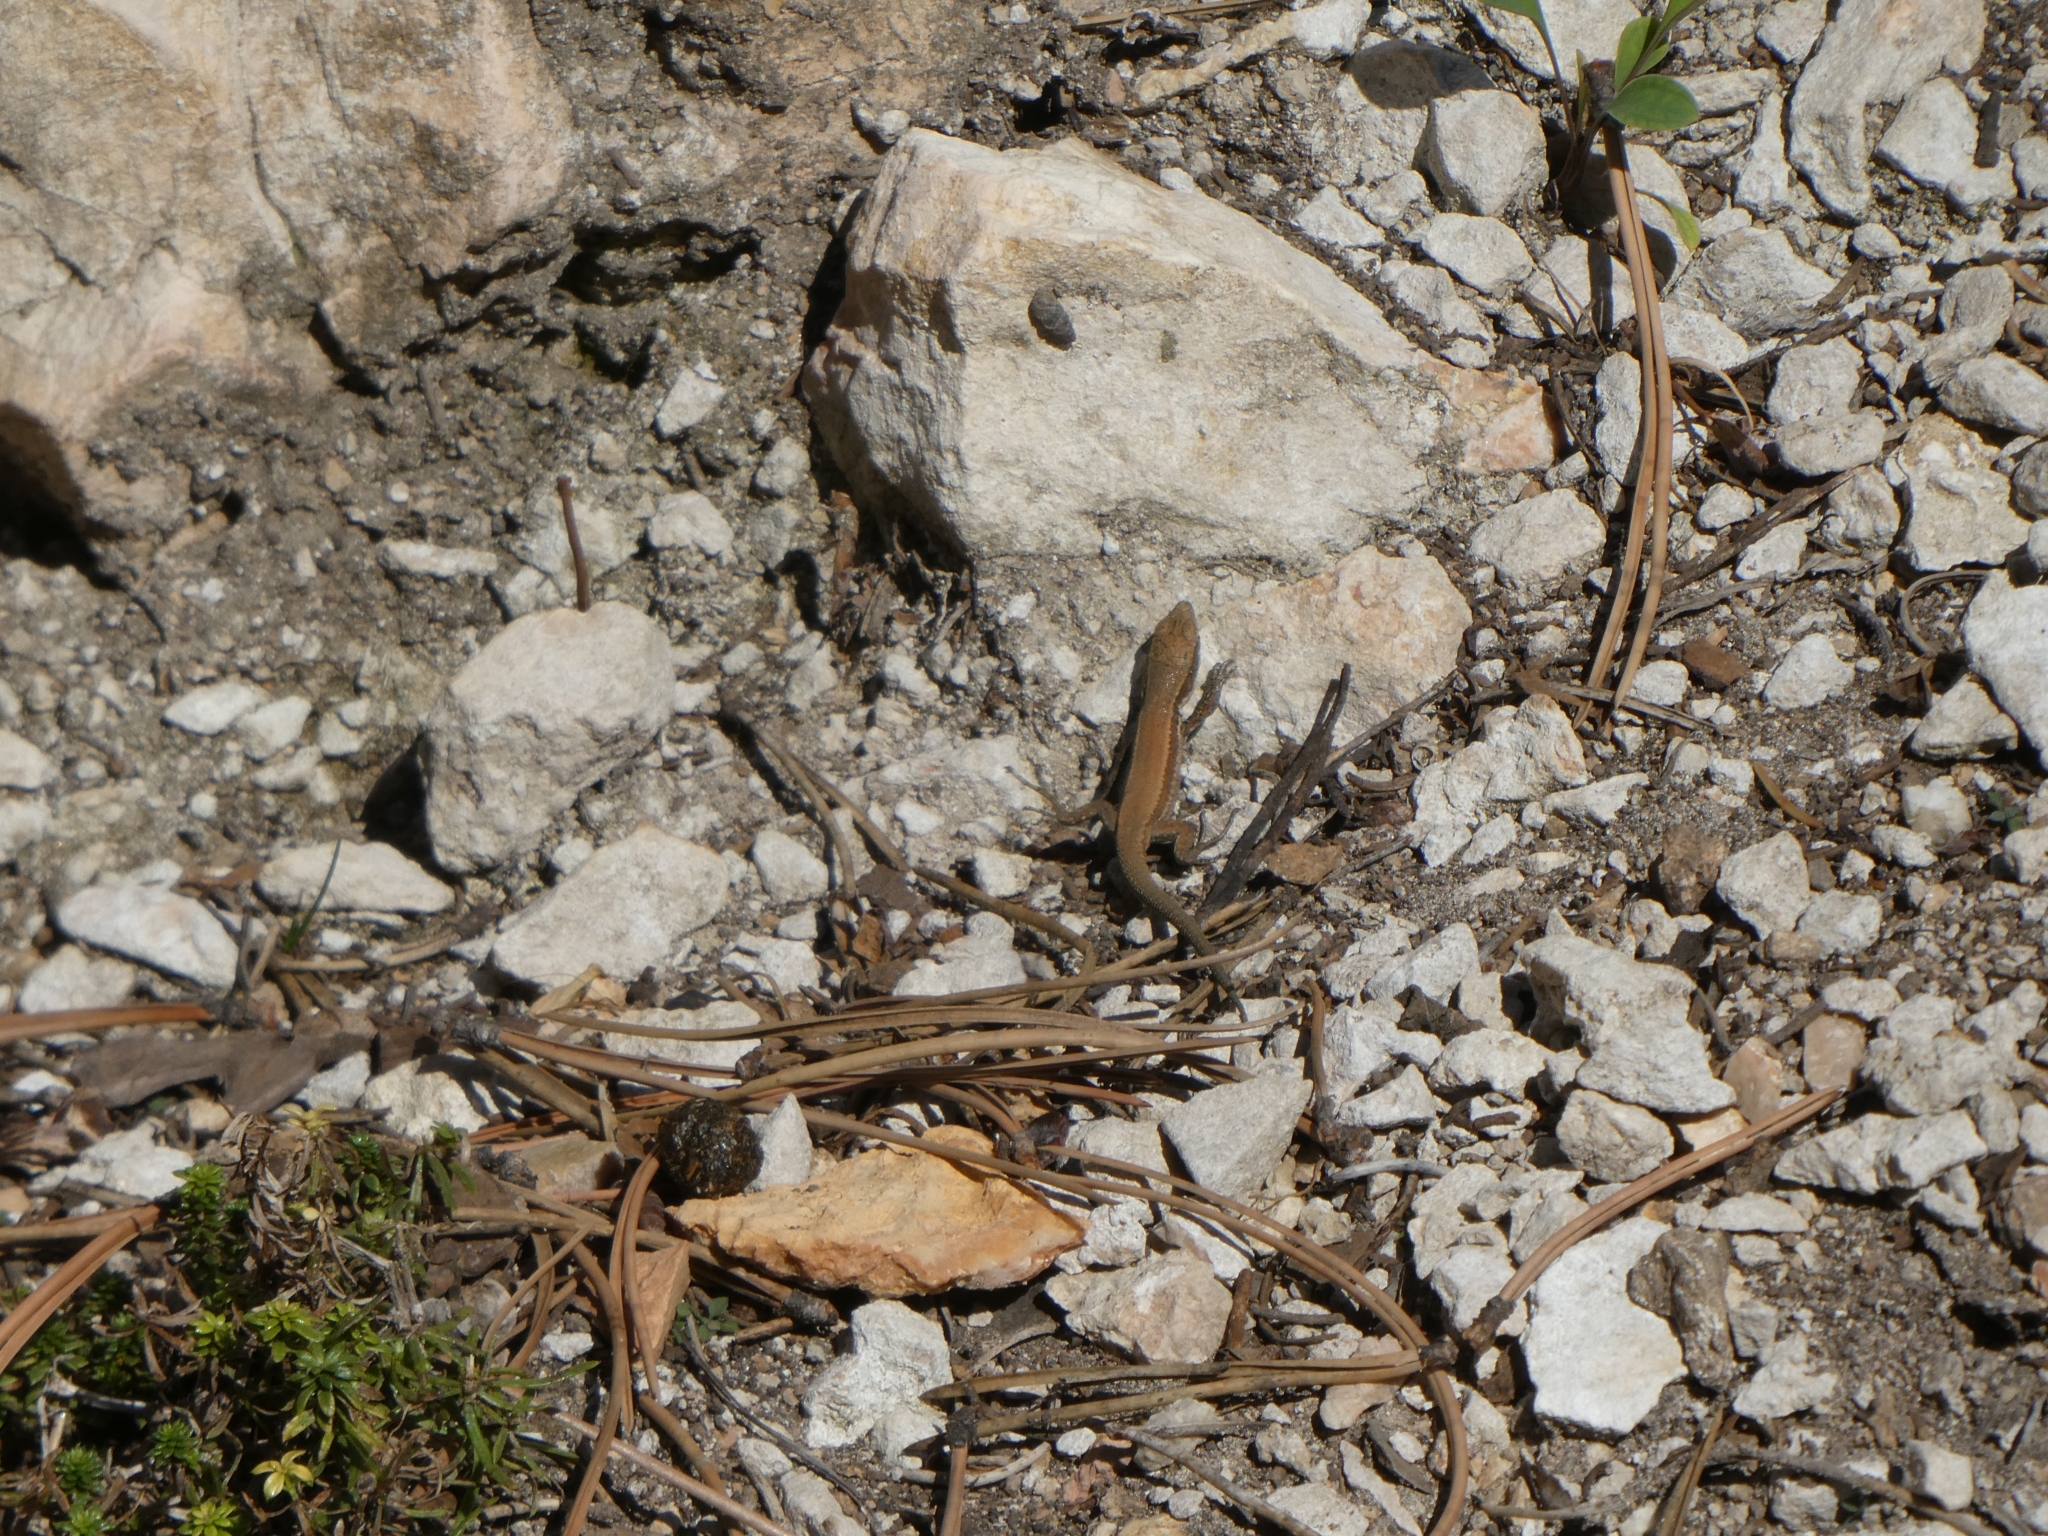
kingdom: Animalia
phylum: Chordata
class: Squamata
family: Lacertidae
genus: Podarcis
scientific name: Podarcis muralis
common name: Common wall lizard
